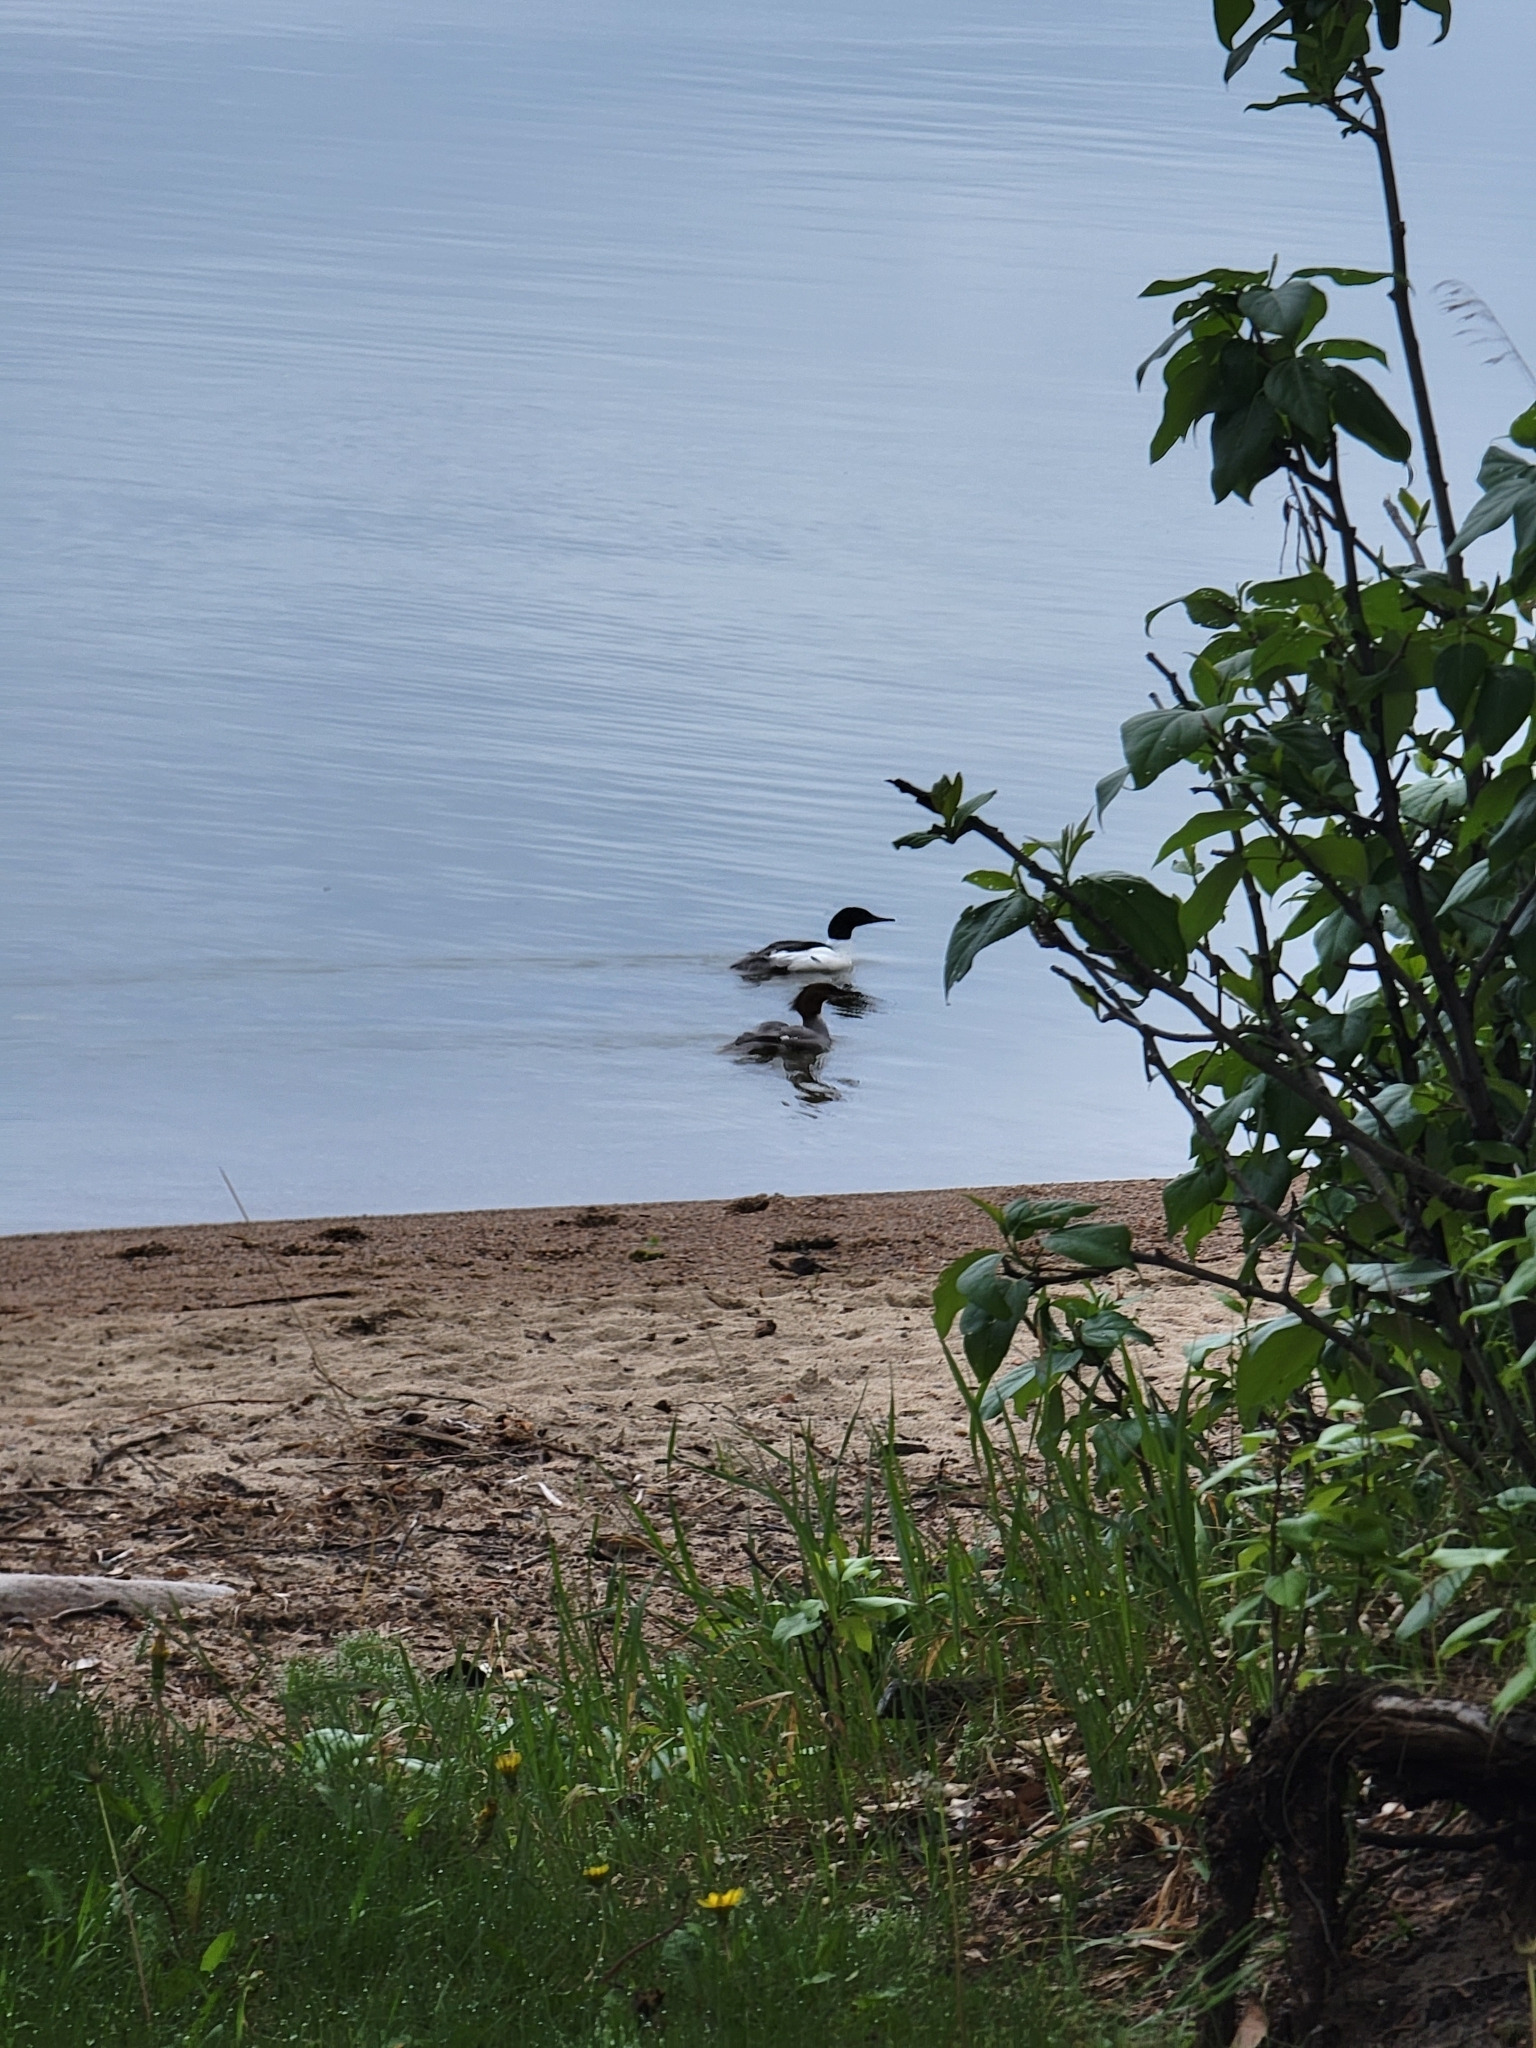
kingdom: Animalia
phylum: Chordata
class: Aves
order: Anseriformes
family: Anatidae
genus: Mergus
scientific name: Mergus merganser
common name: Common merganser
